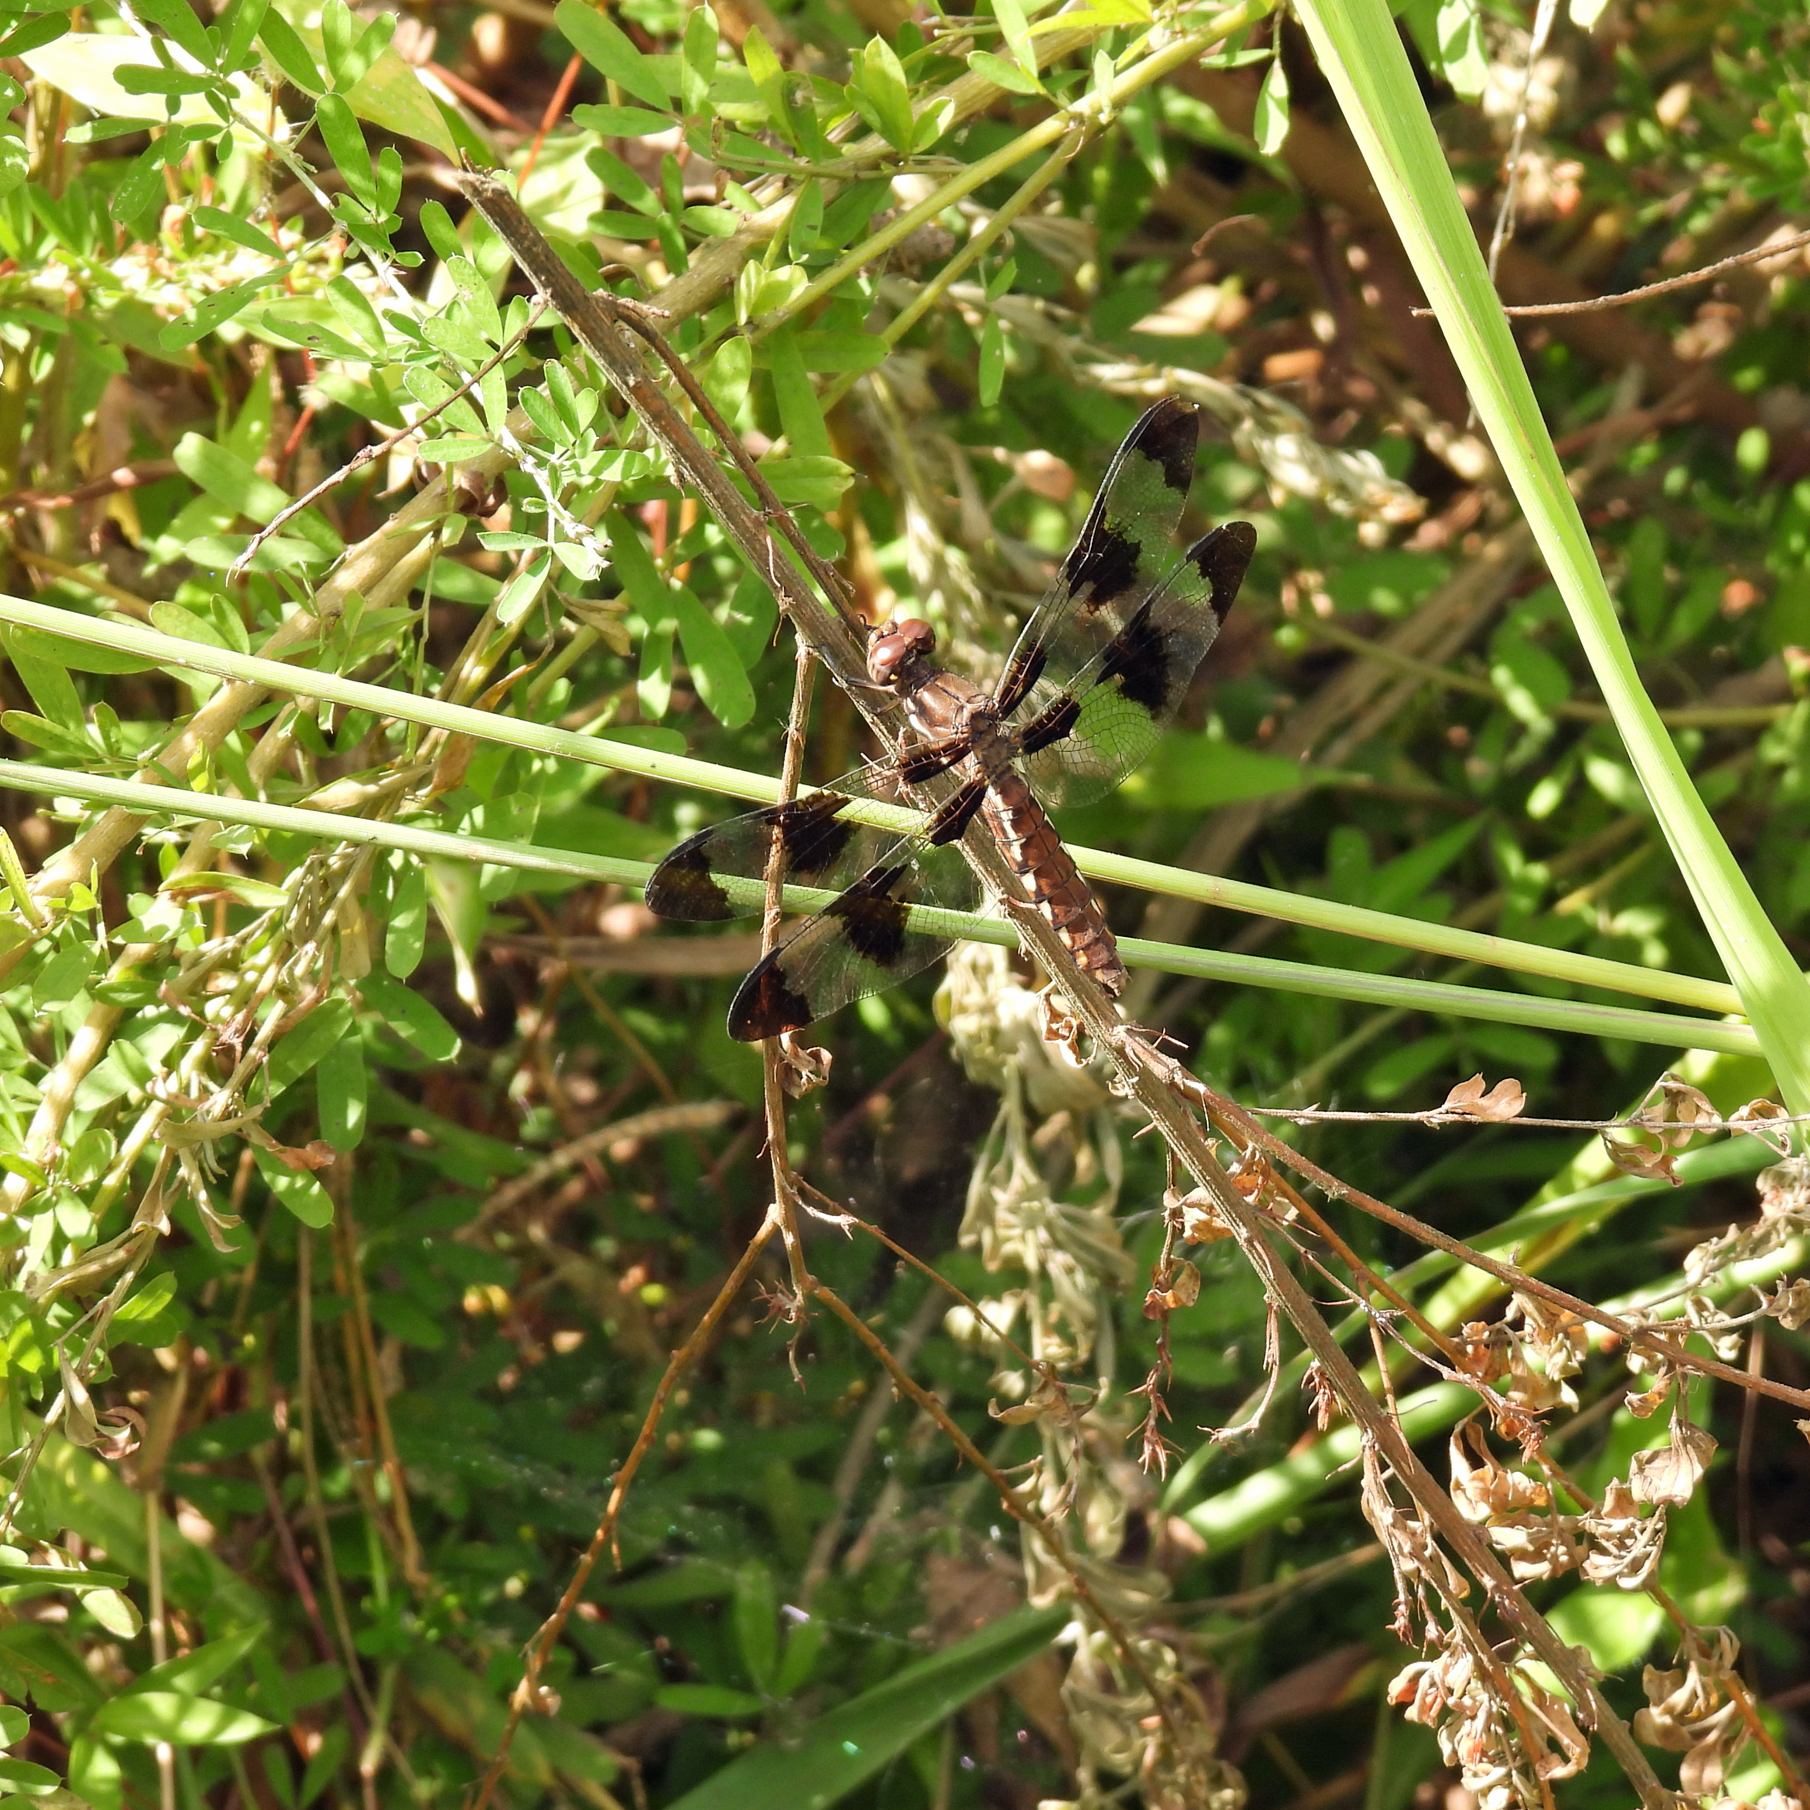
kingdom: Animalia
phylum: Arthropoda
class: Insecta
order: Odonata
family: Libellulidae
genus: Plathemis
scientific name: Plathemis lydia
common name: Common whitetail
